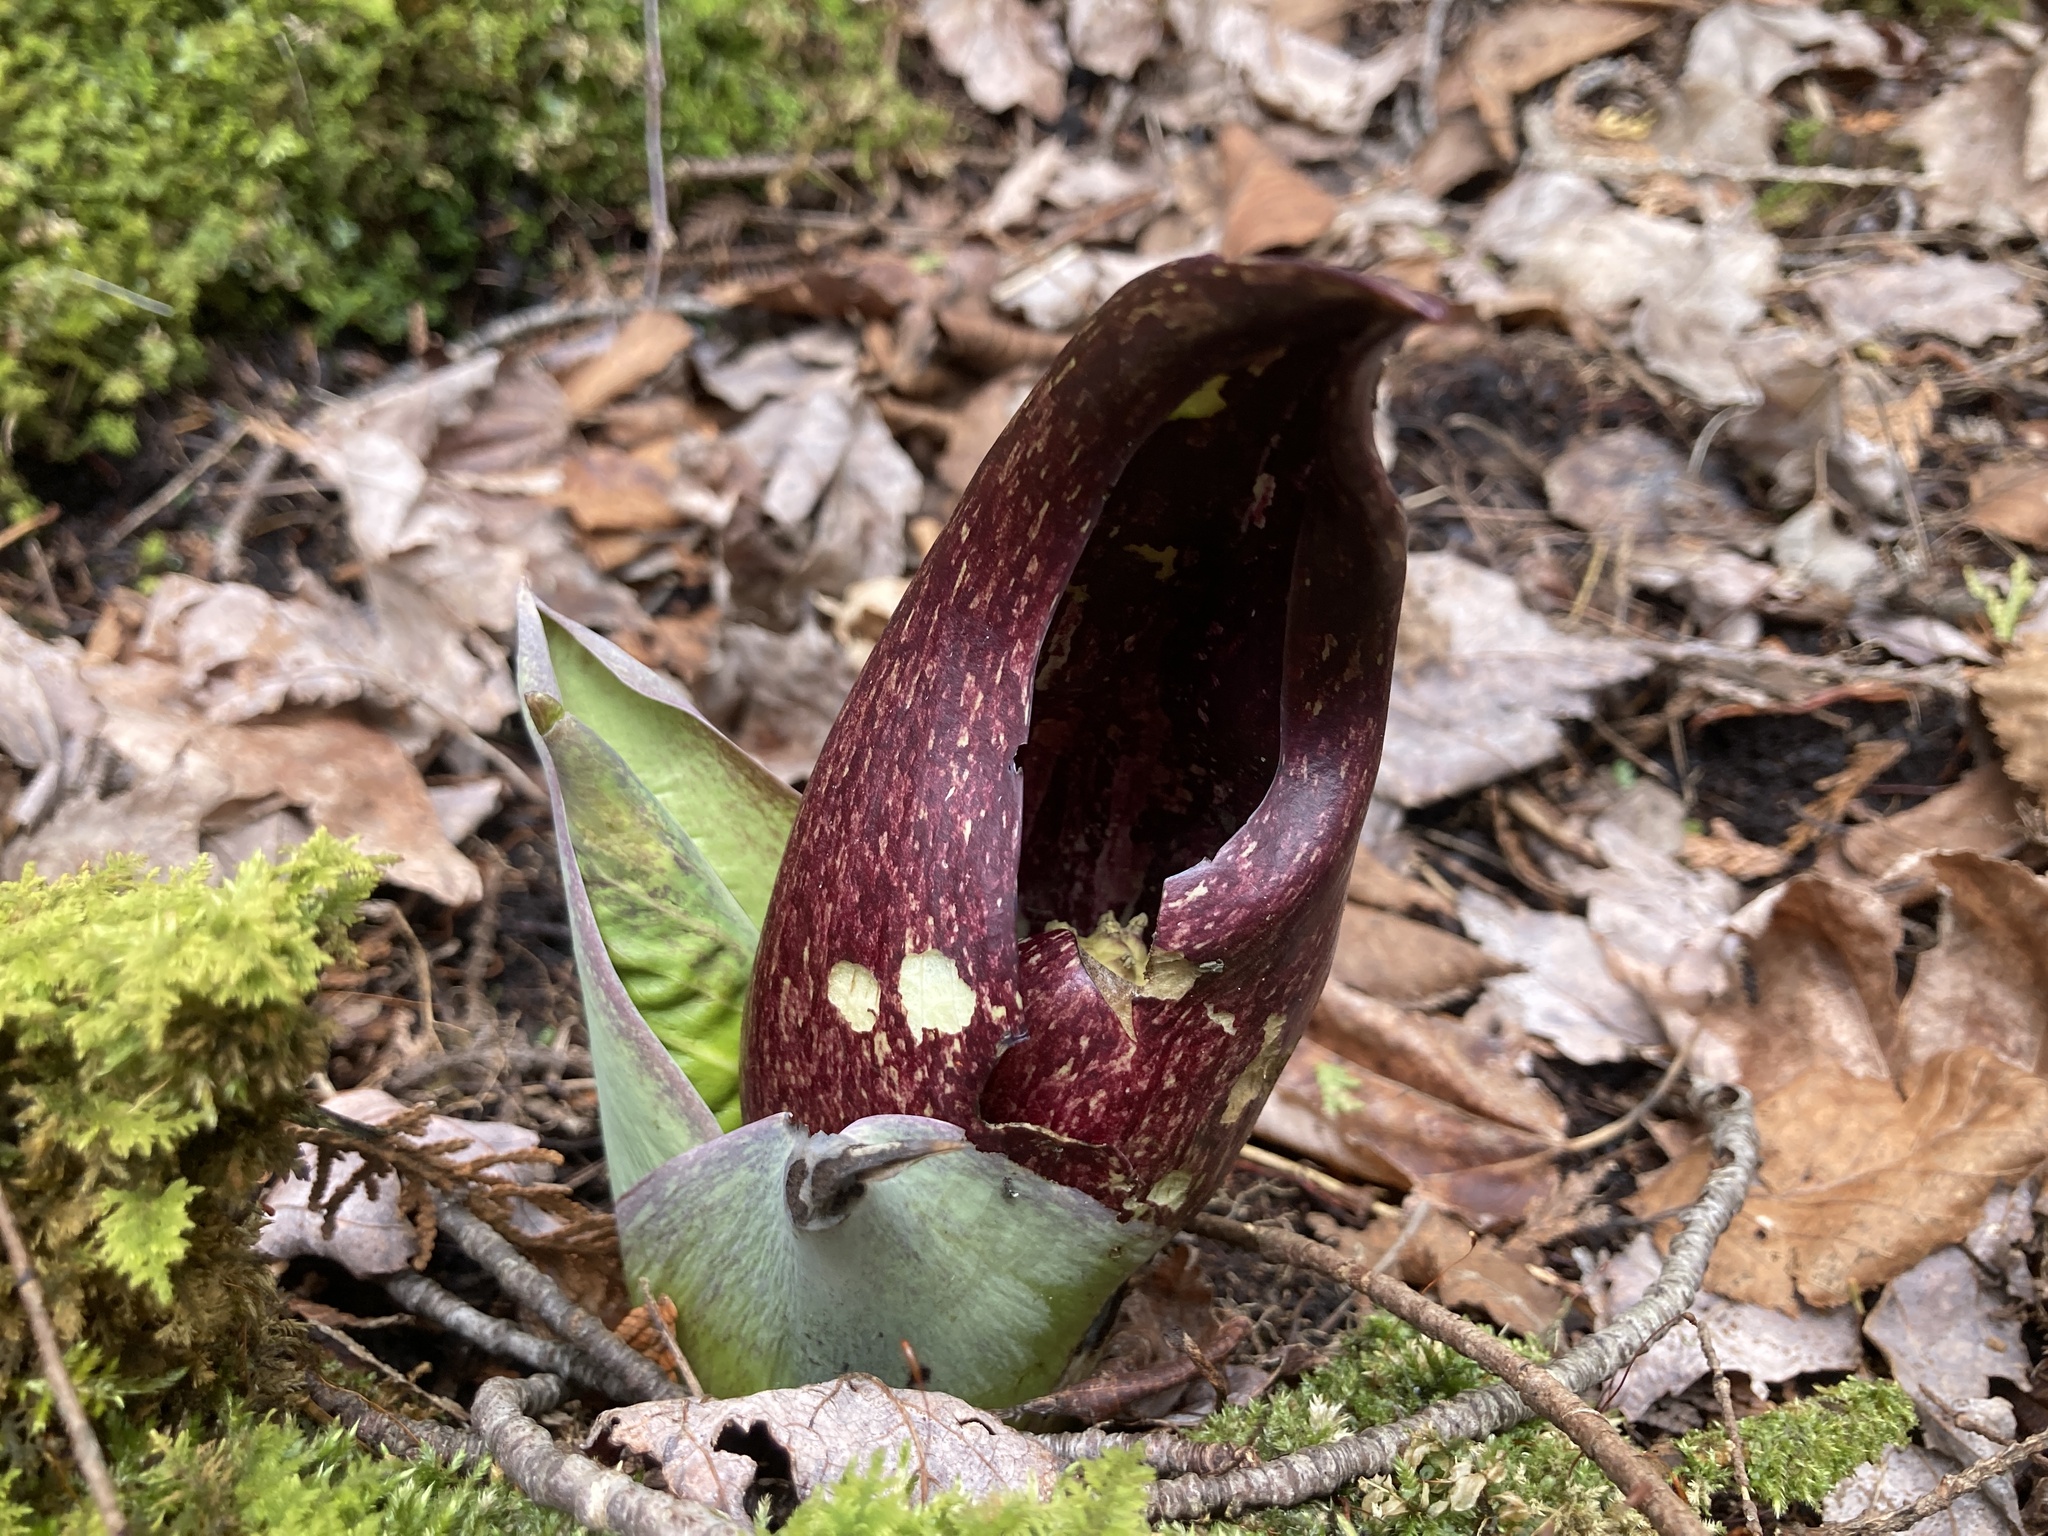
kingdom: Plantae
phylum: Tracheophyta
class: Liliopsida
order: Alismatales
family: Araceae
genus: Symplocarpus
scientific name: Symplocarpus foetidus
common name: Eastern skunk cabbage
